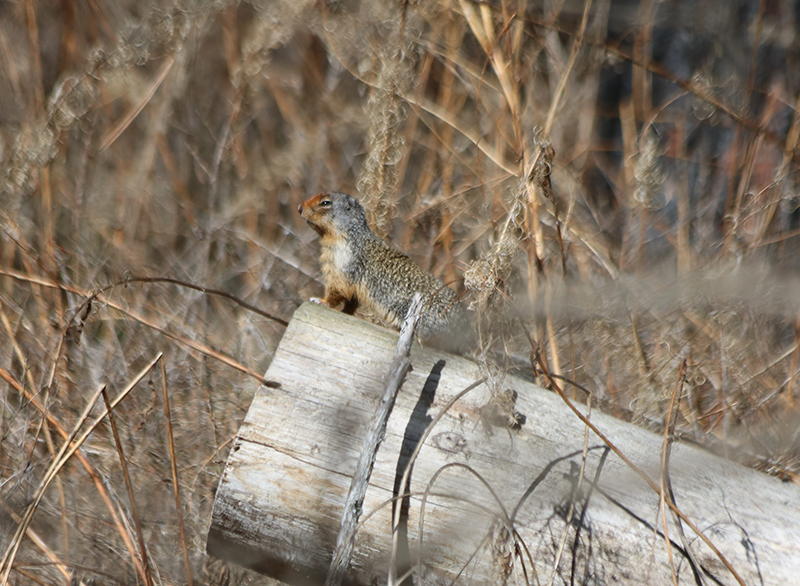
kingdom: Animalia
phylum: Chordata
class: Mammalia
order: Rodentia
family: Sciuridae
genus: Urocitellus
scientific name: Urocitellus columbianus
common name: Columbian ground squirrel
